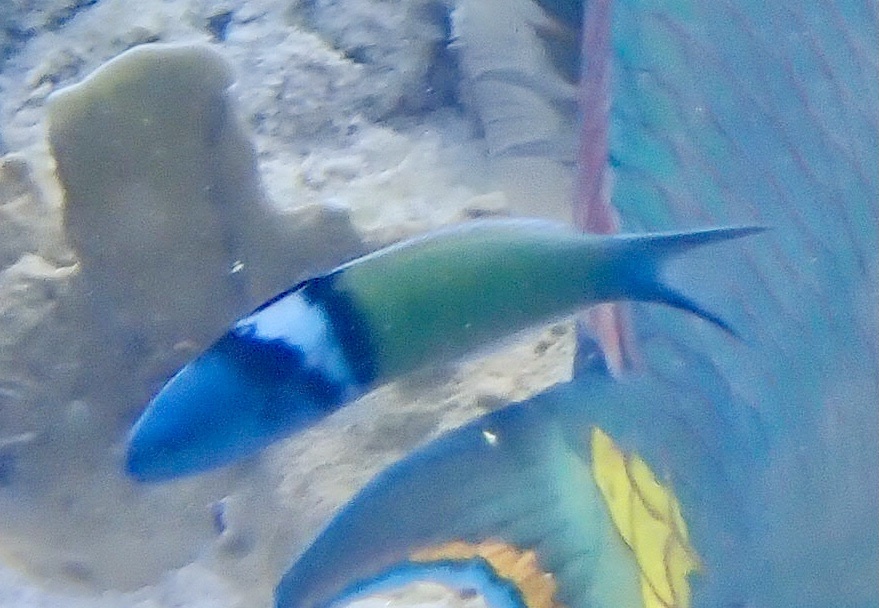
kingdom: Animalia
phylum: Chordata
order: Perciformes
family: Labridae
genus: Thalassoma
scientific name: Thalassoma bifasciatum
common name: Bluehead wrasse
